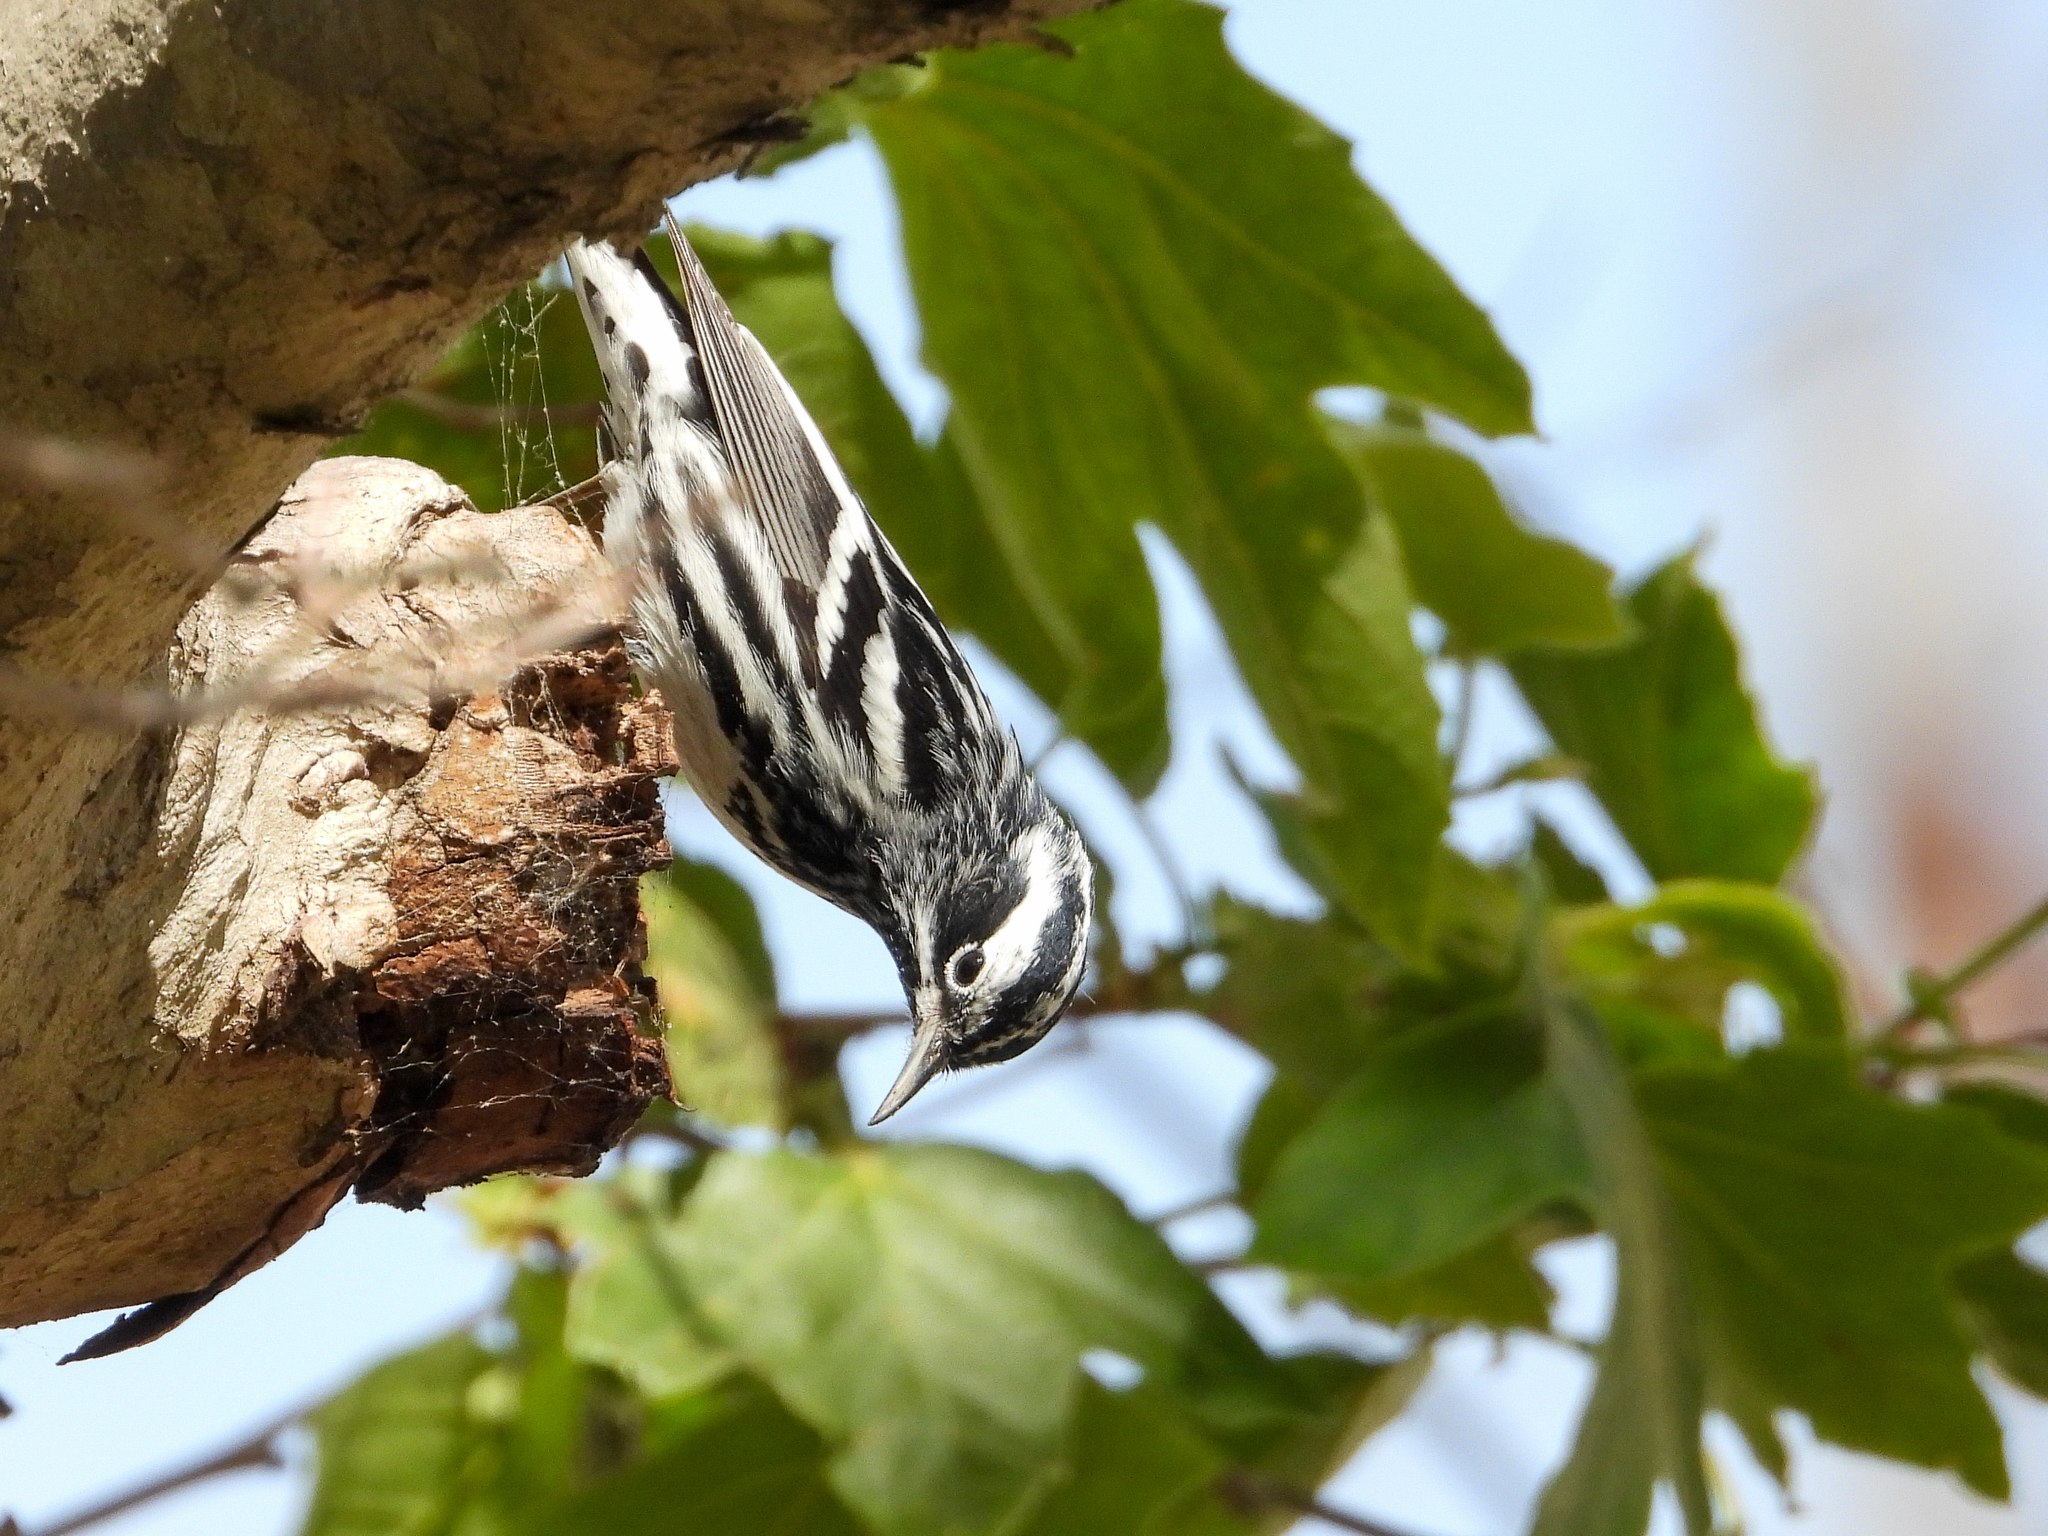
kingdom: Animalia
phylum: Chordata
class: Aves
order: Passeriformes
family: Parulidae
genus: Mniotilta
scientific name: Mniotilta varia
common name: Black-and-white warbler
